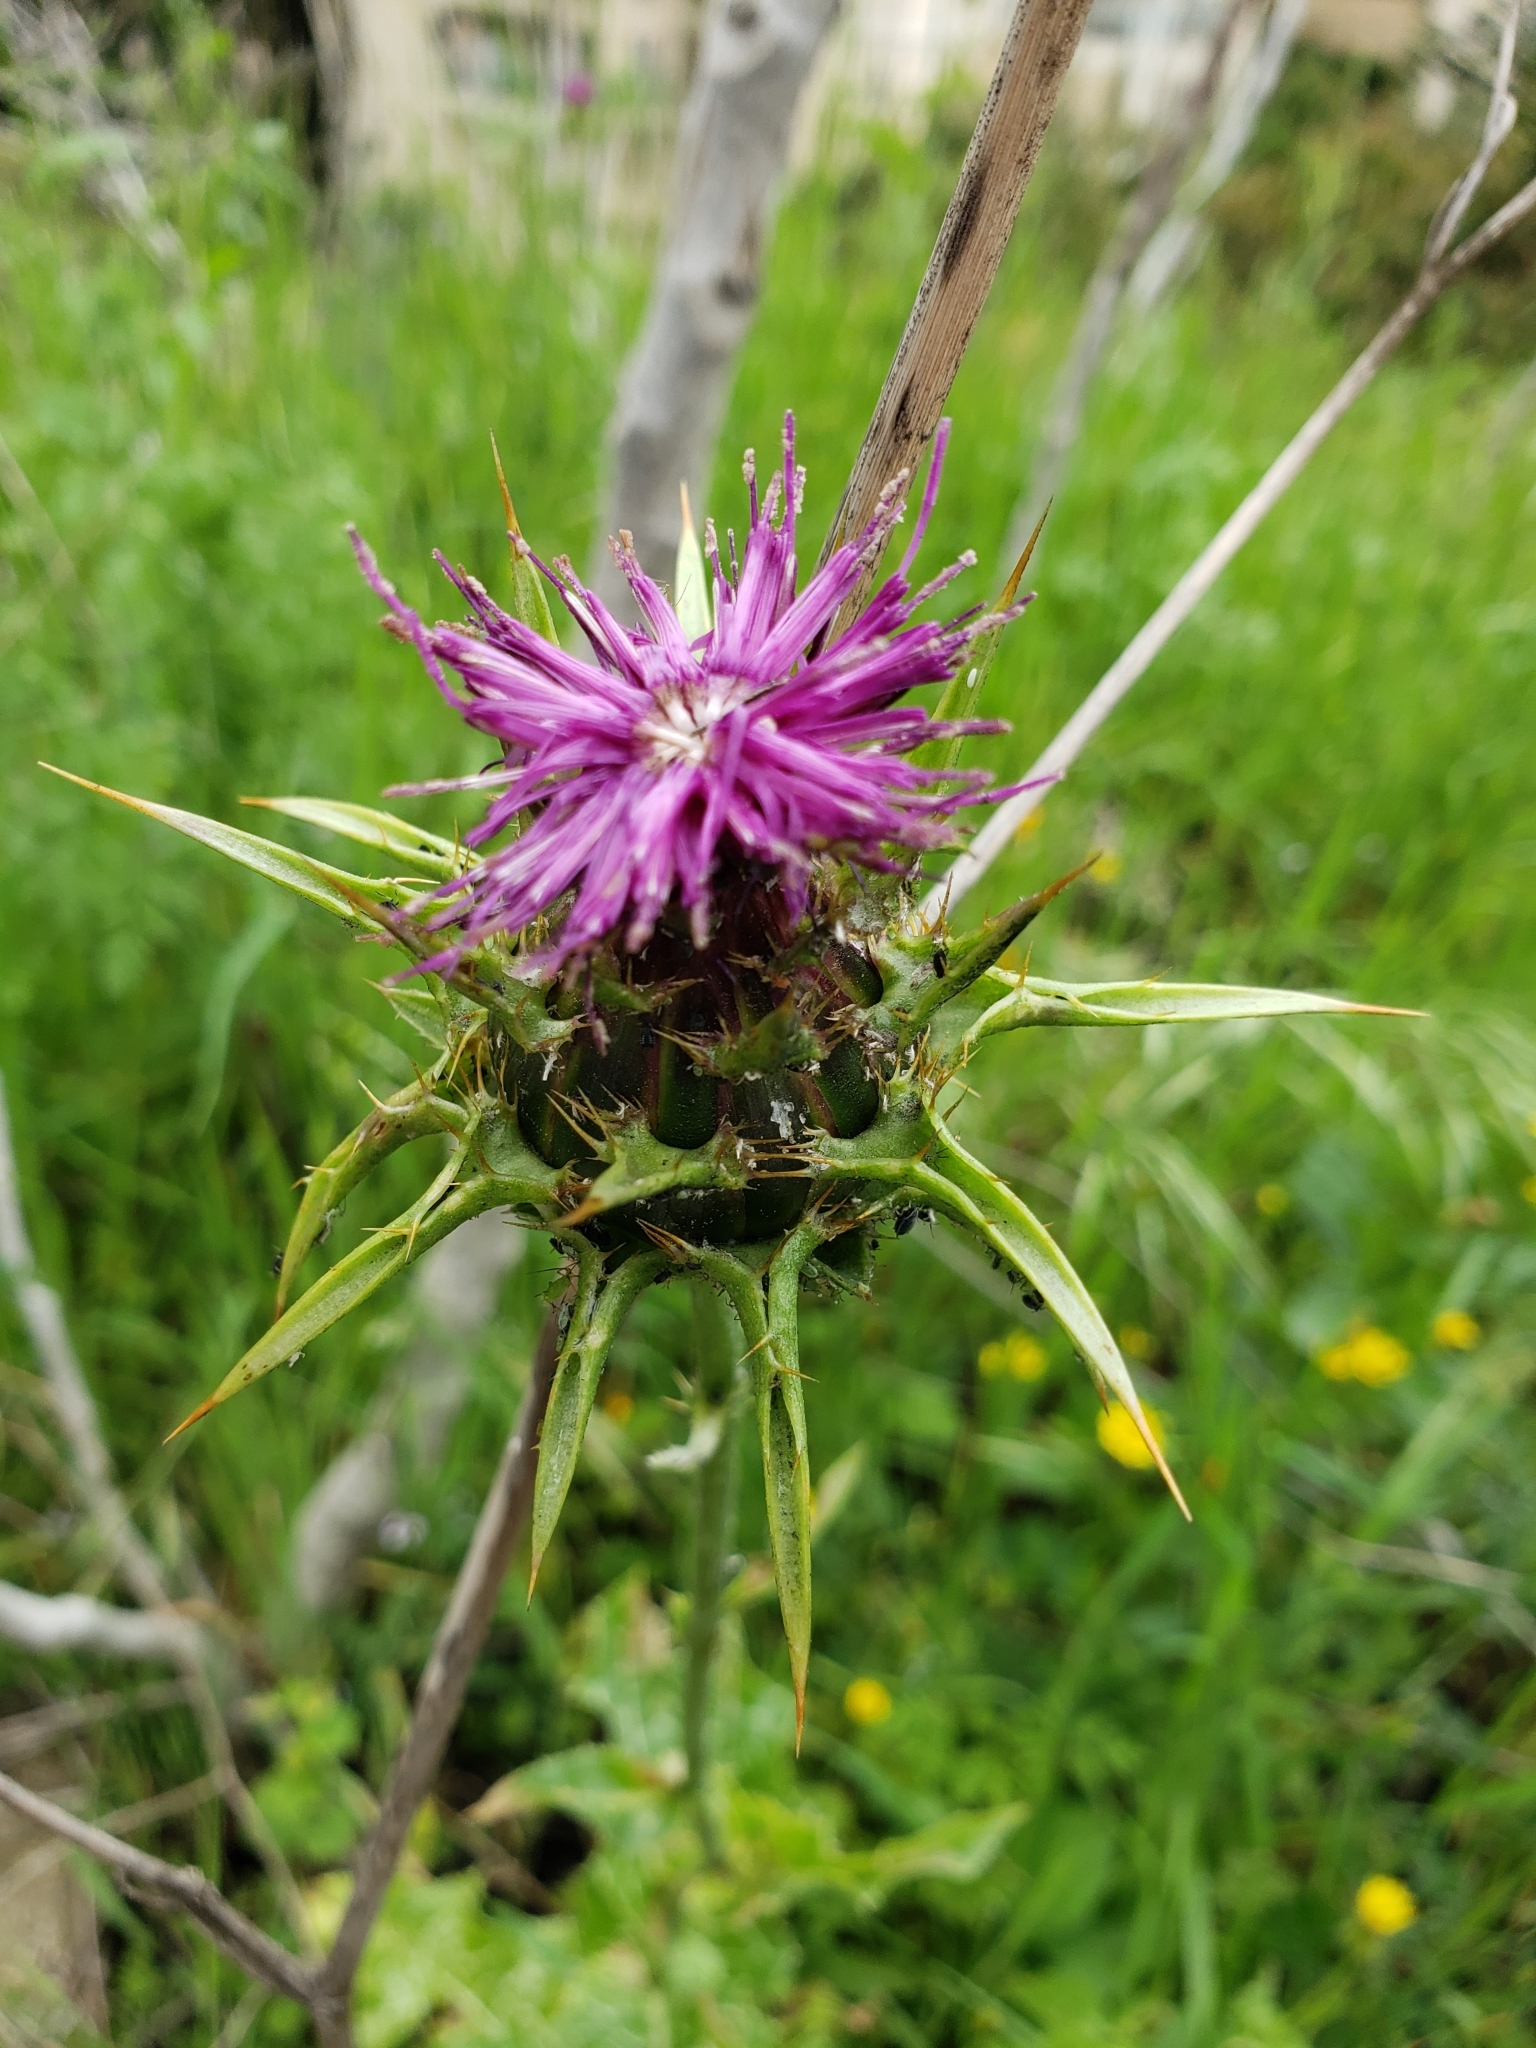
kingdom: Plantae
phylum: Tracheophyta
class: Magnoliopsida
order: Asterales
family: Asteraceae
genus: Silybum
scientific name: Silybum marianum
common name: Milk thistle
